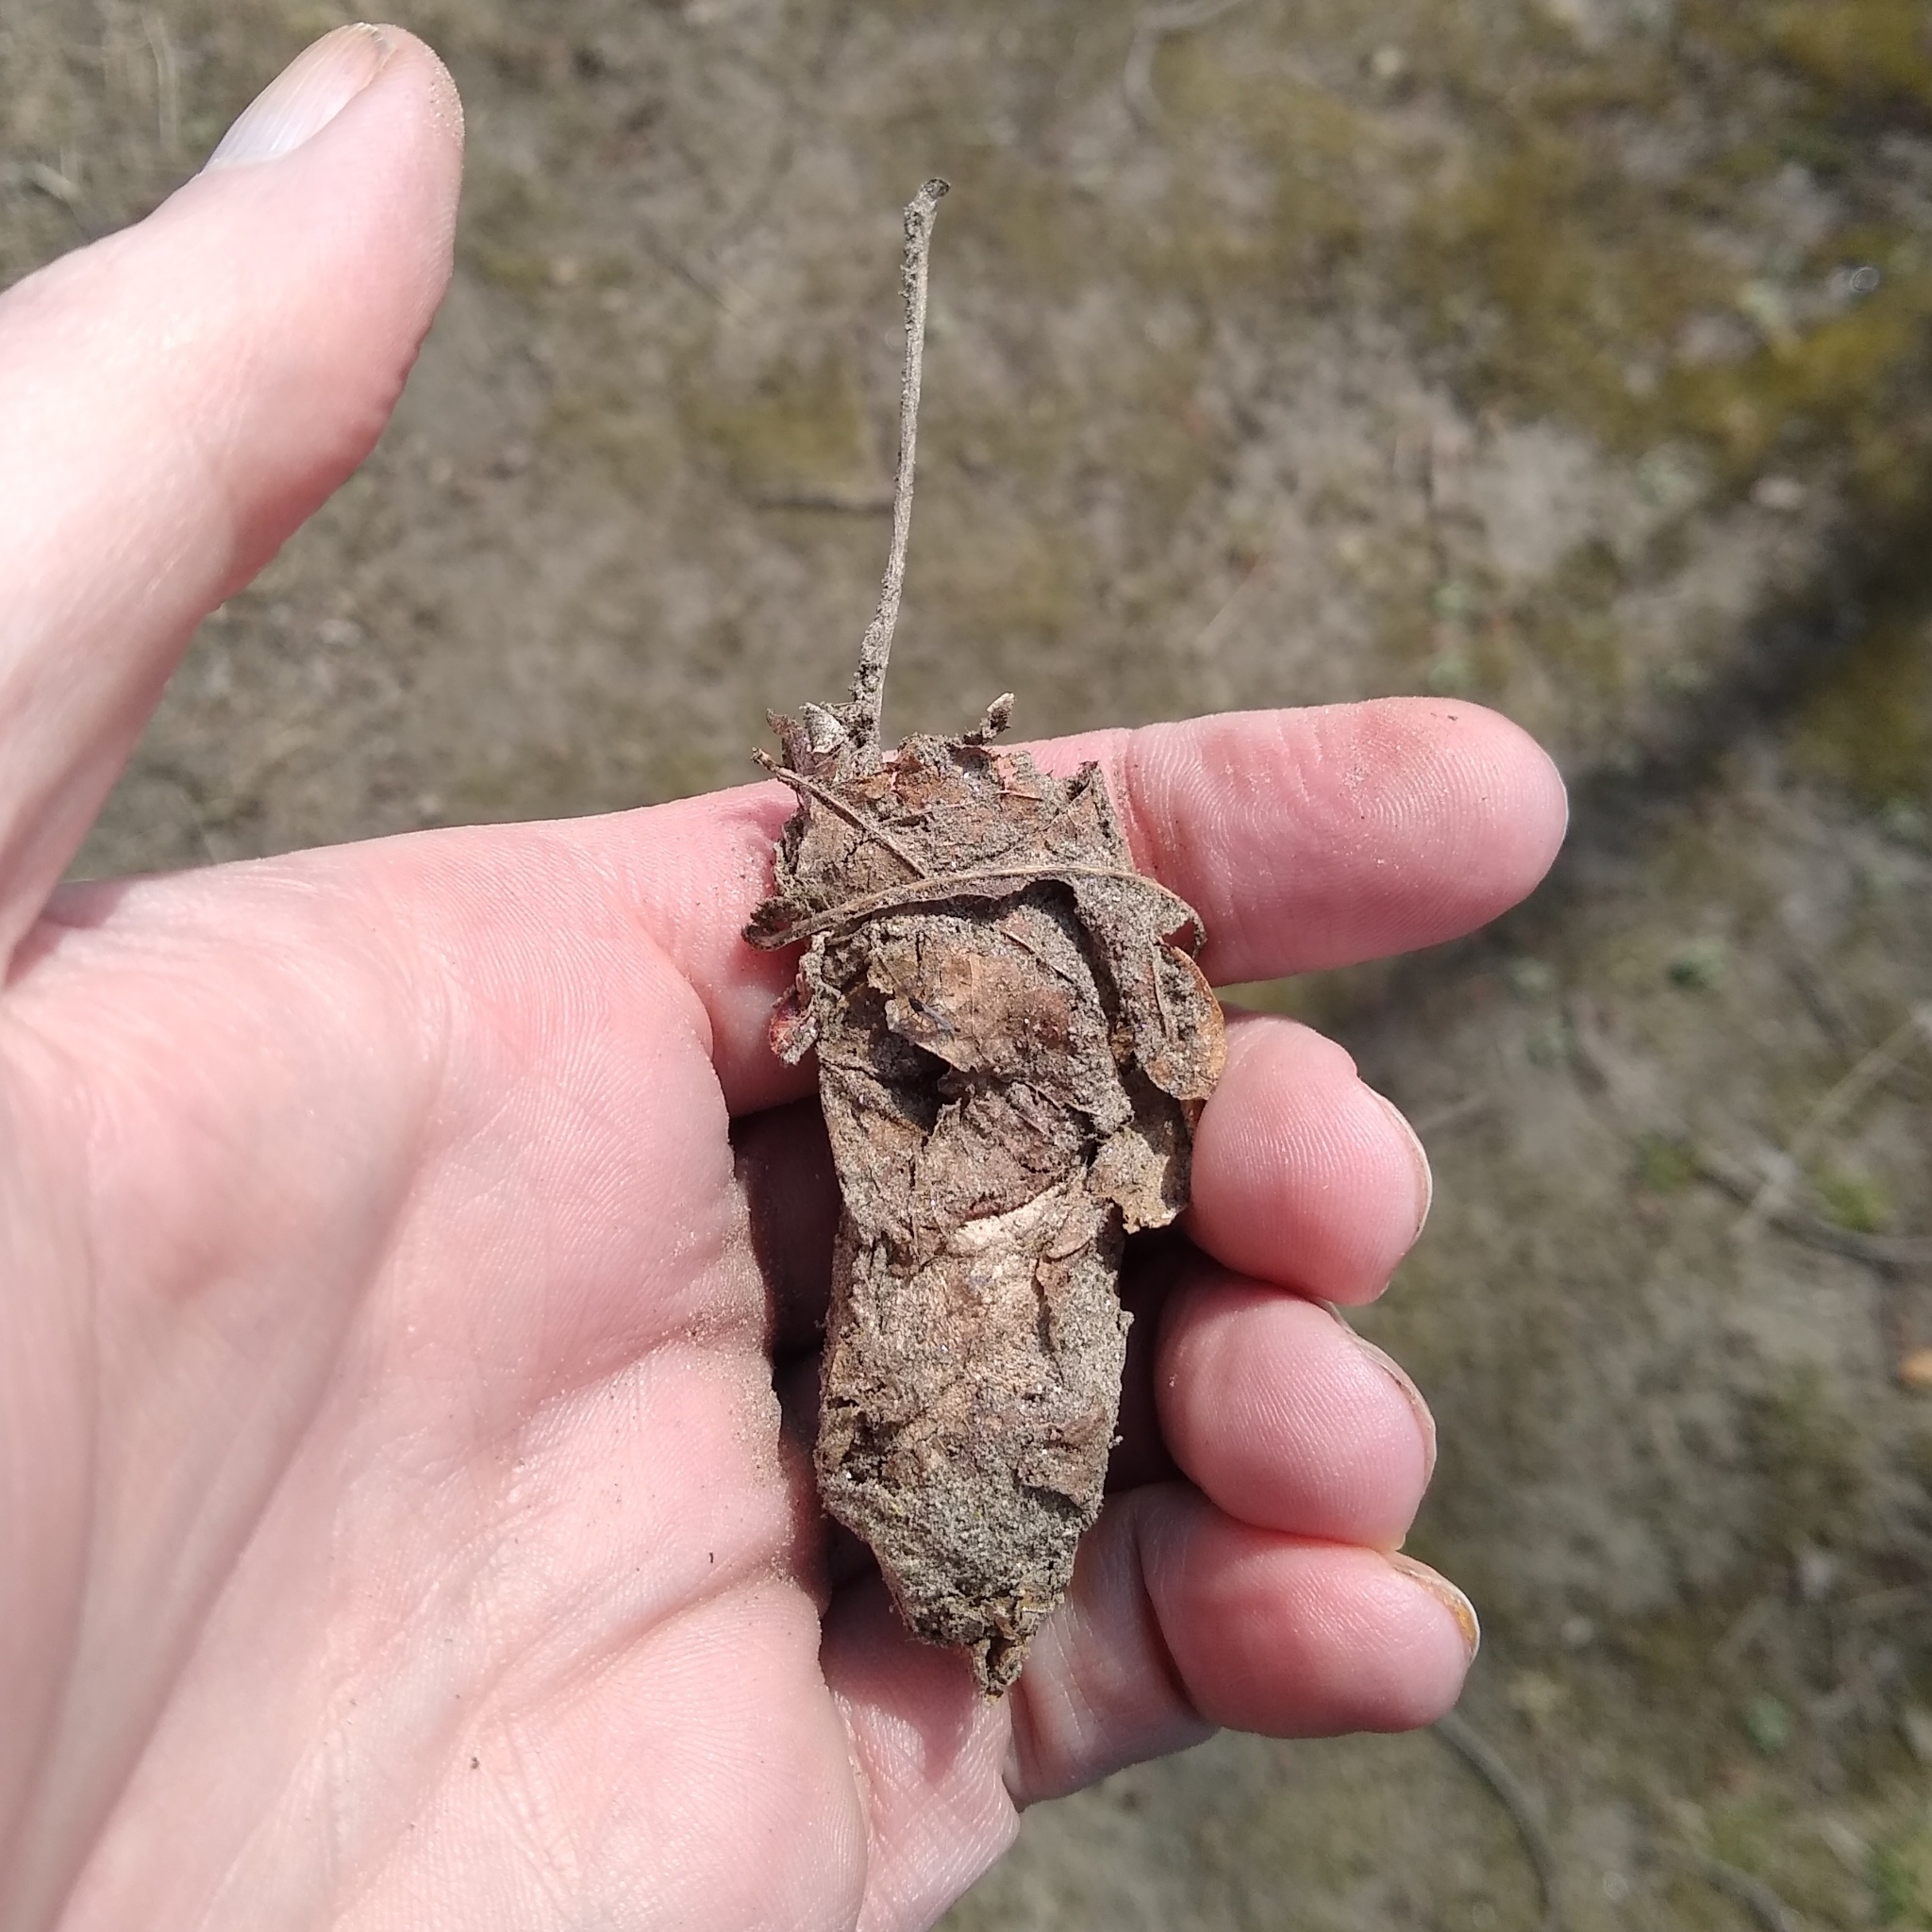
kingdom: Animalia
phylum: Arthropoda
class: Insecta
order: Lepidoptera
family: Saturniidae
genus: Antheraea
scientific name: Antheraea polyphemus
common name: Polyphemus moth
